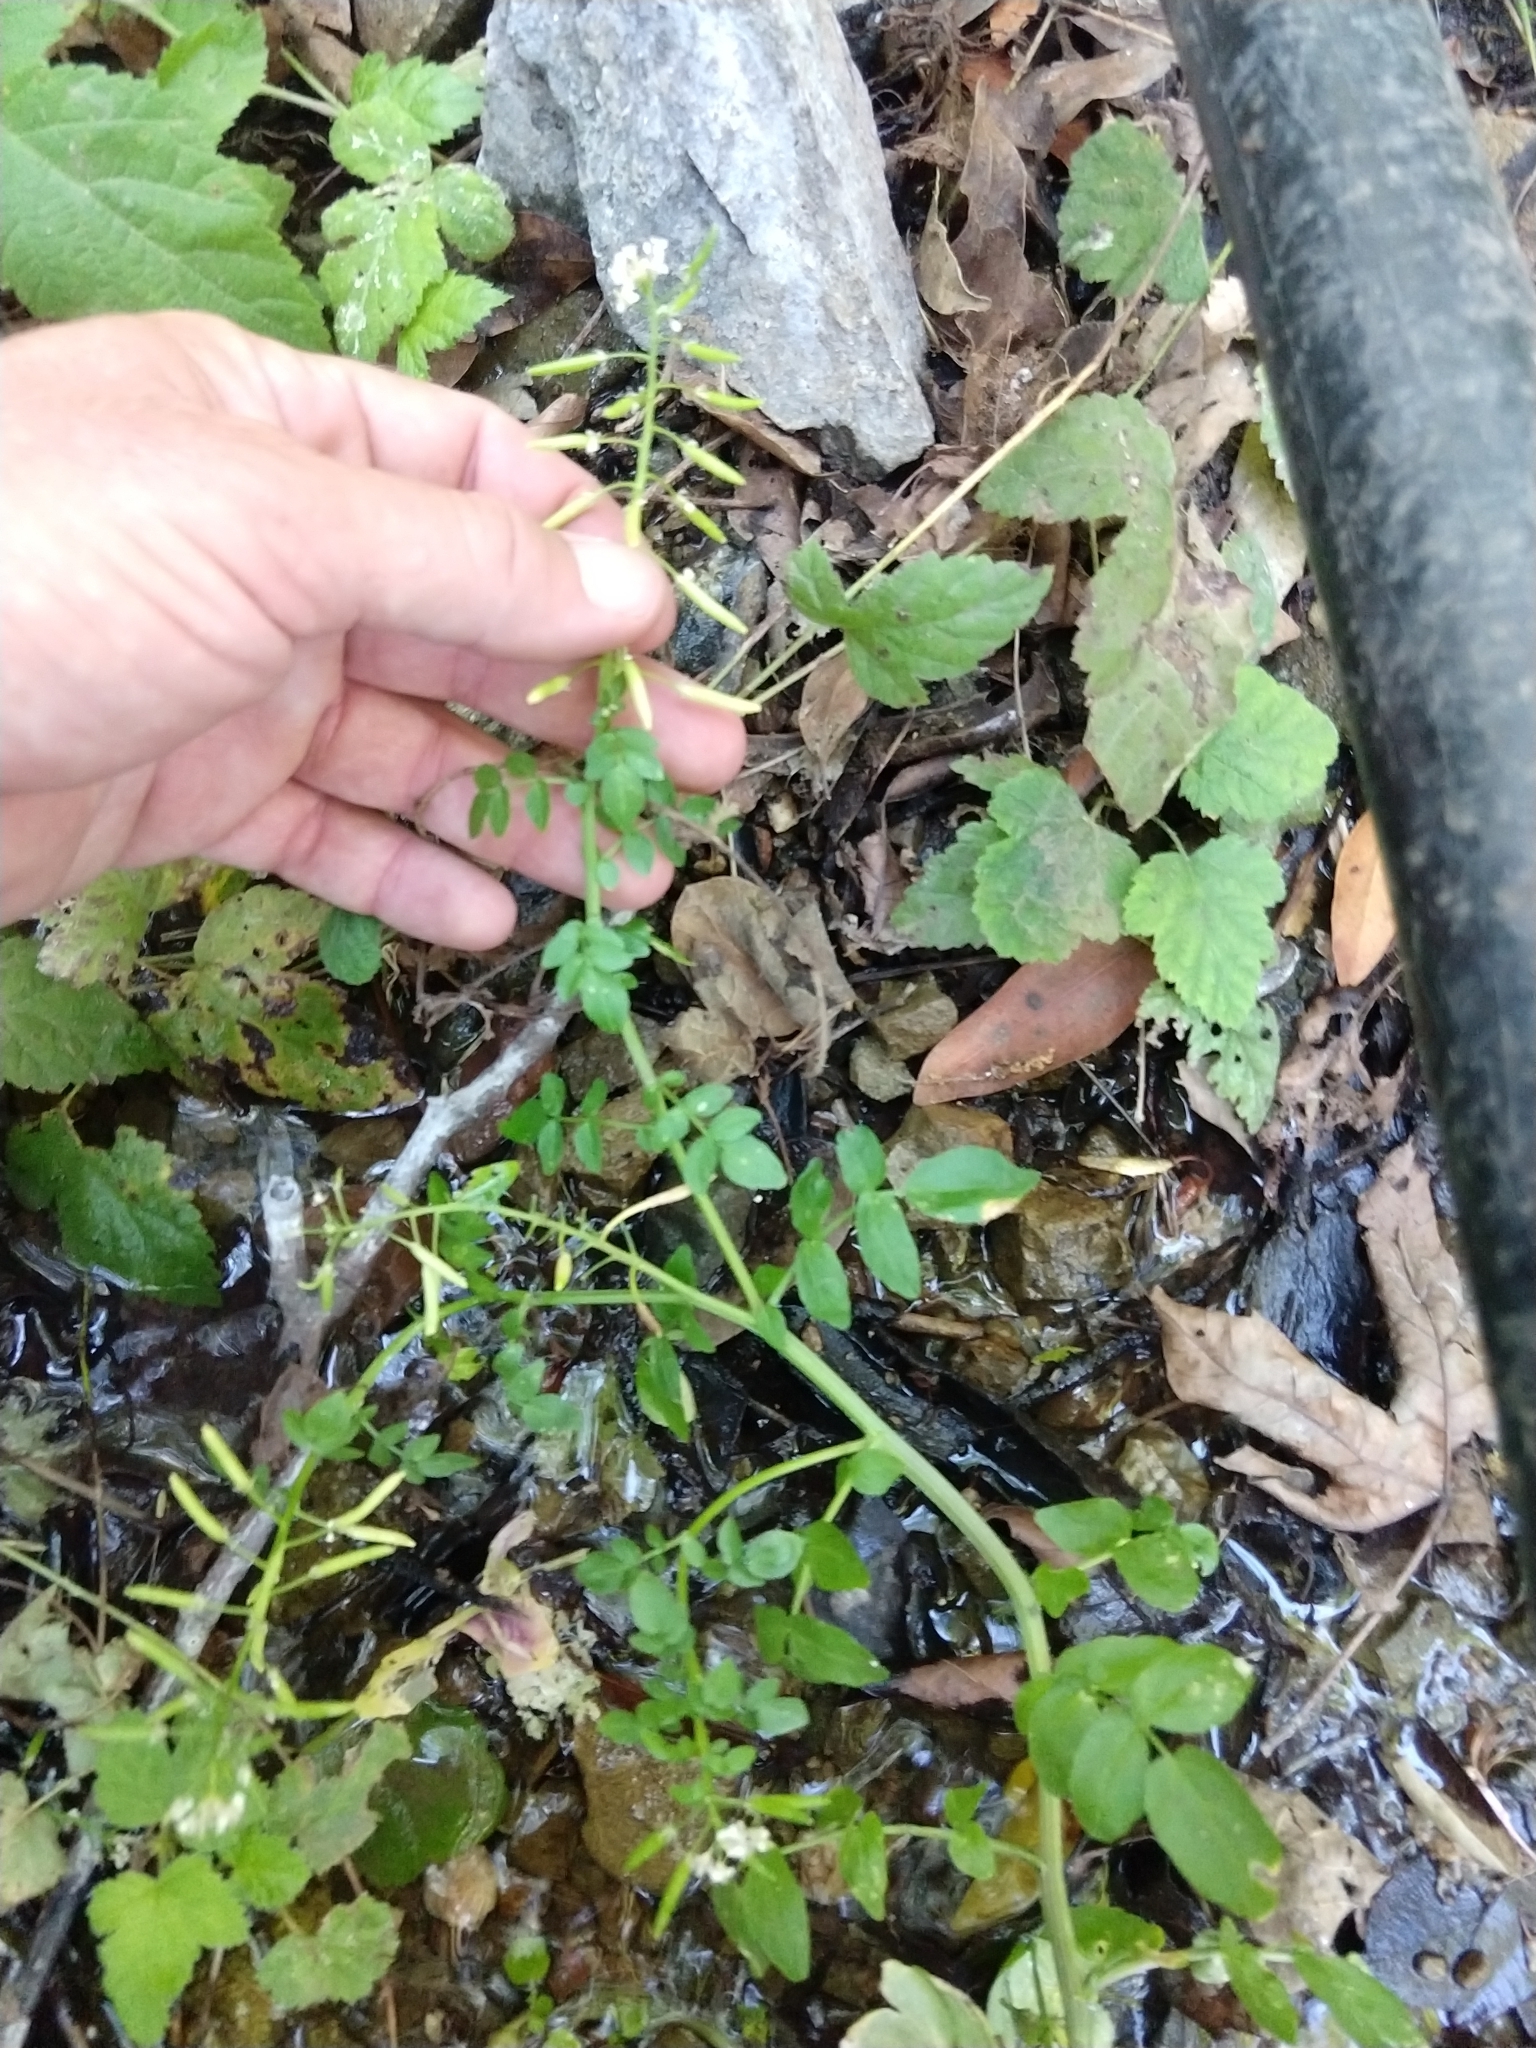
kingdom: Plantae
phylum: Tracheophyta
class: Magnoliopsida
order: Brassicales
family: Brassicaceae
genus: Nasturtium
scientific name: Nasturtium officinale
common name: Watercress
